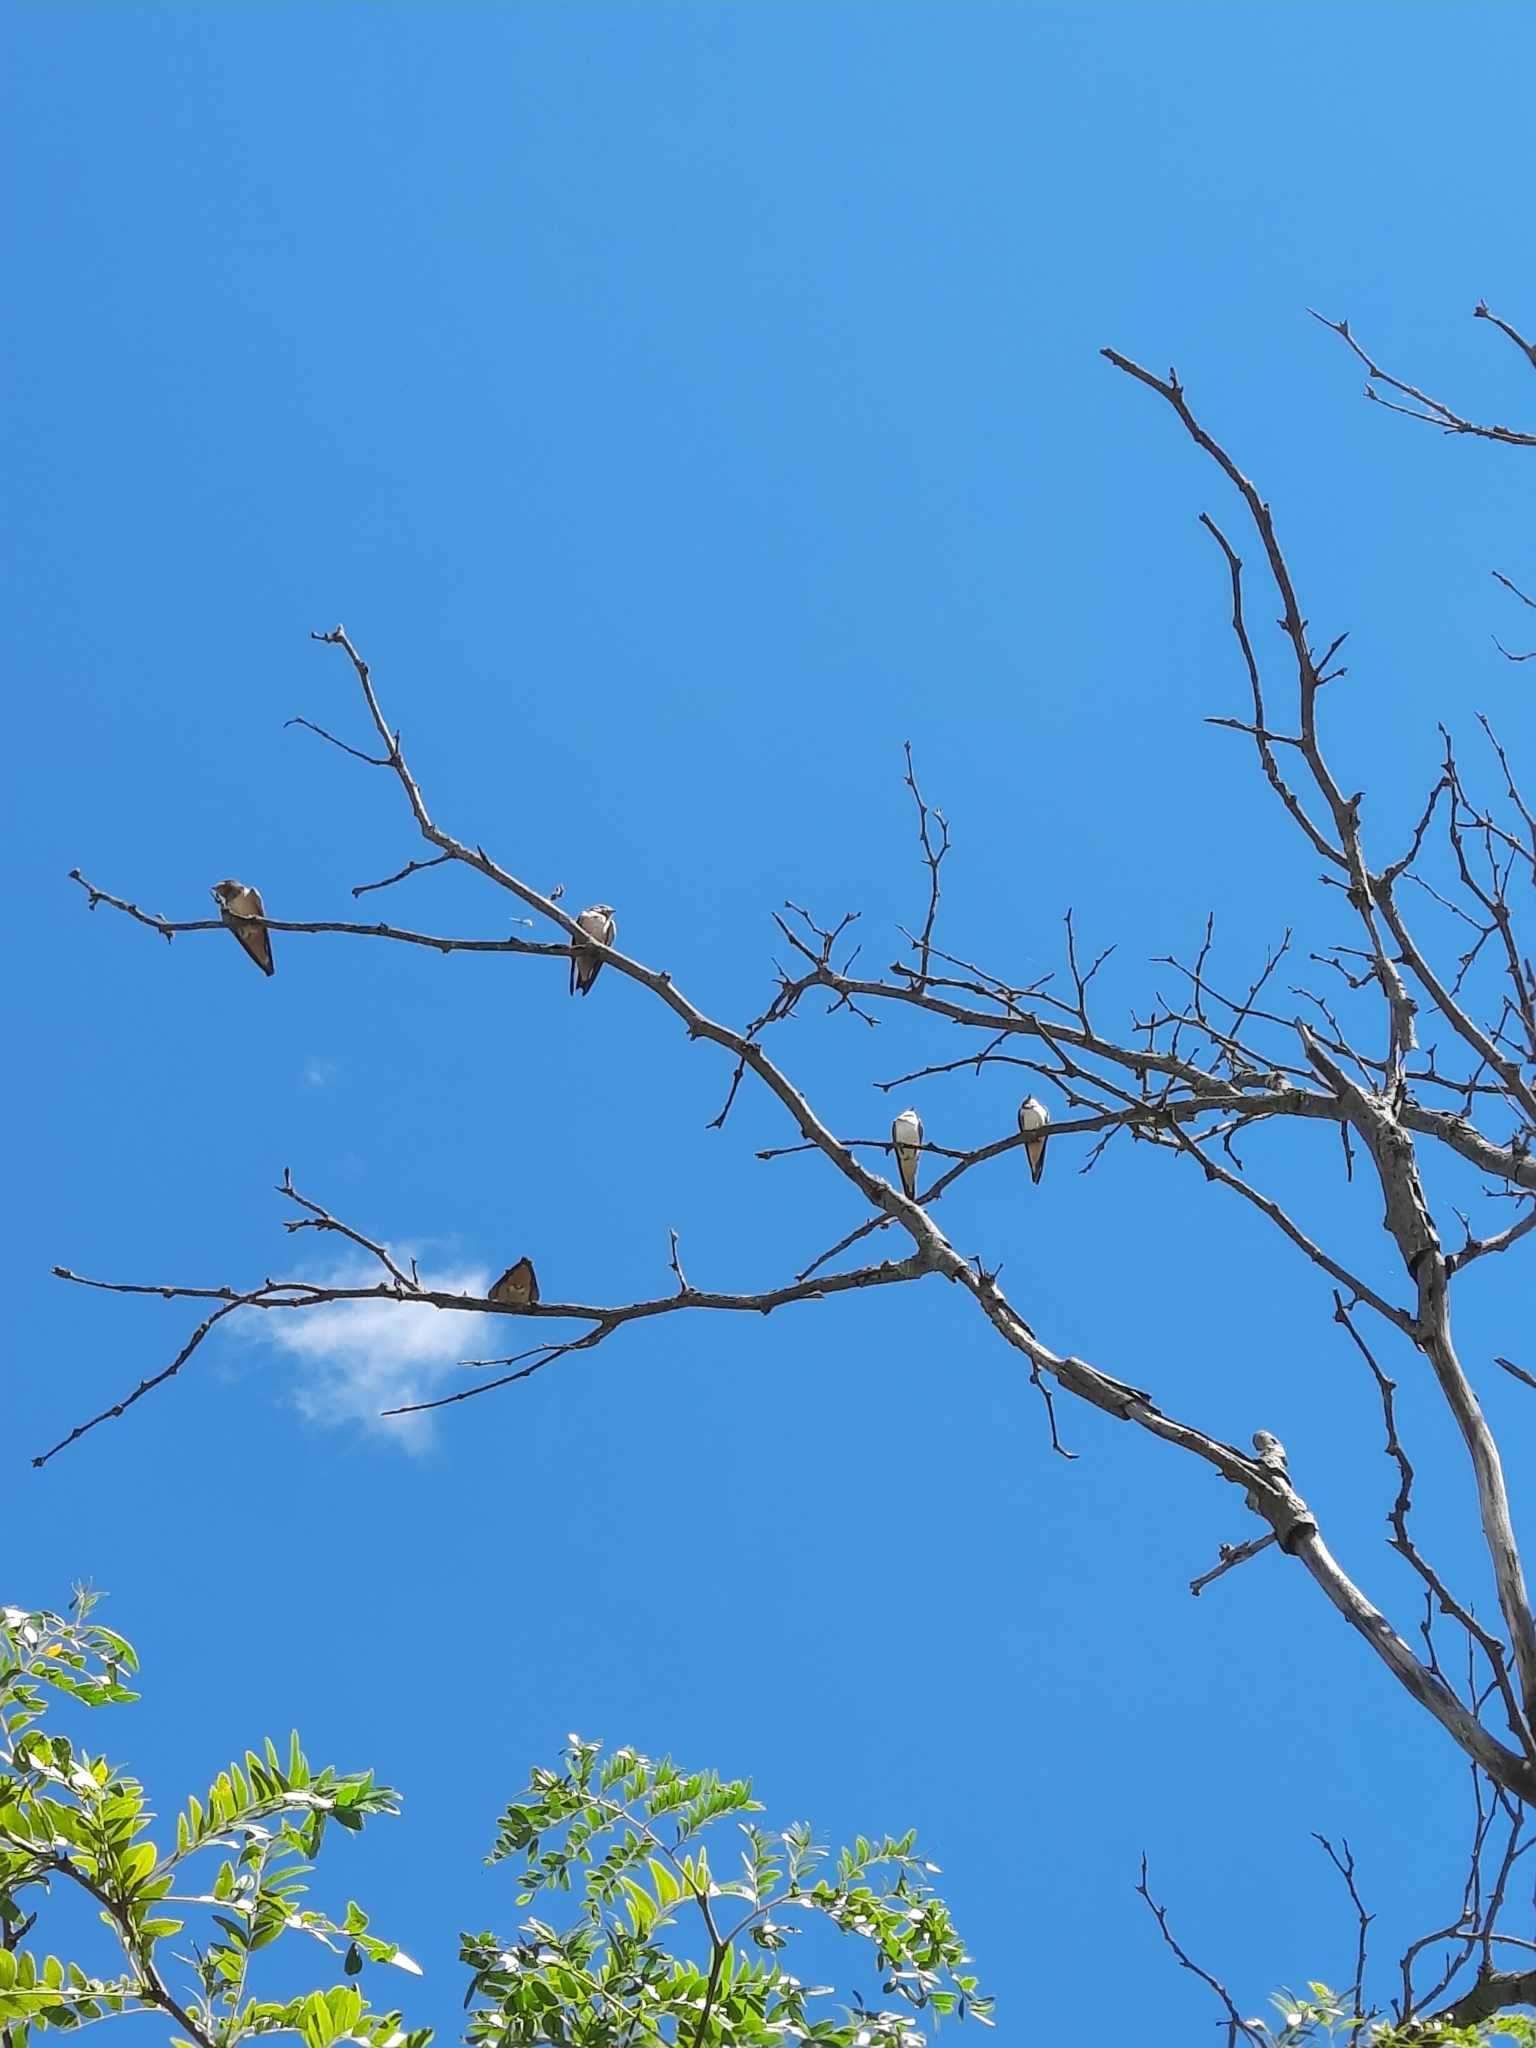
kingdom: Animalia
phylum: Chordata
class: Aves
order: Passeriformes
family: Hirundinidae
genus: Hirundo
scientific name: Hirundo rustica
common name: Barn swallow
